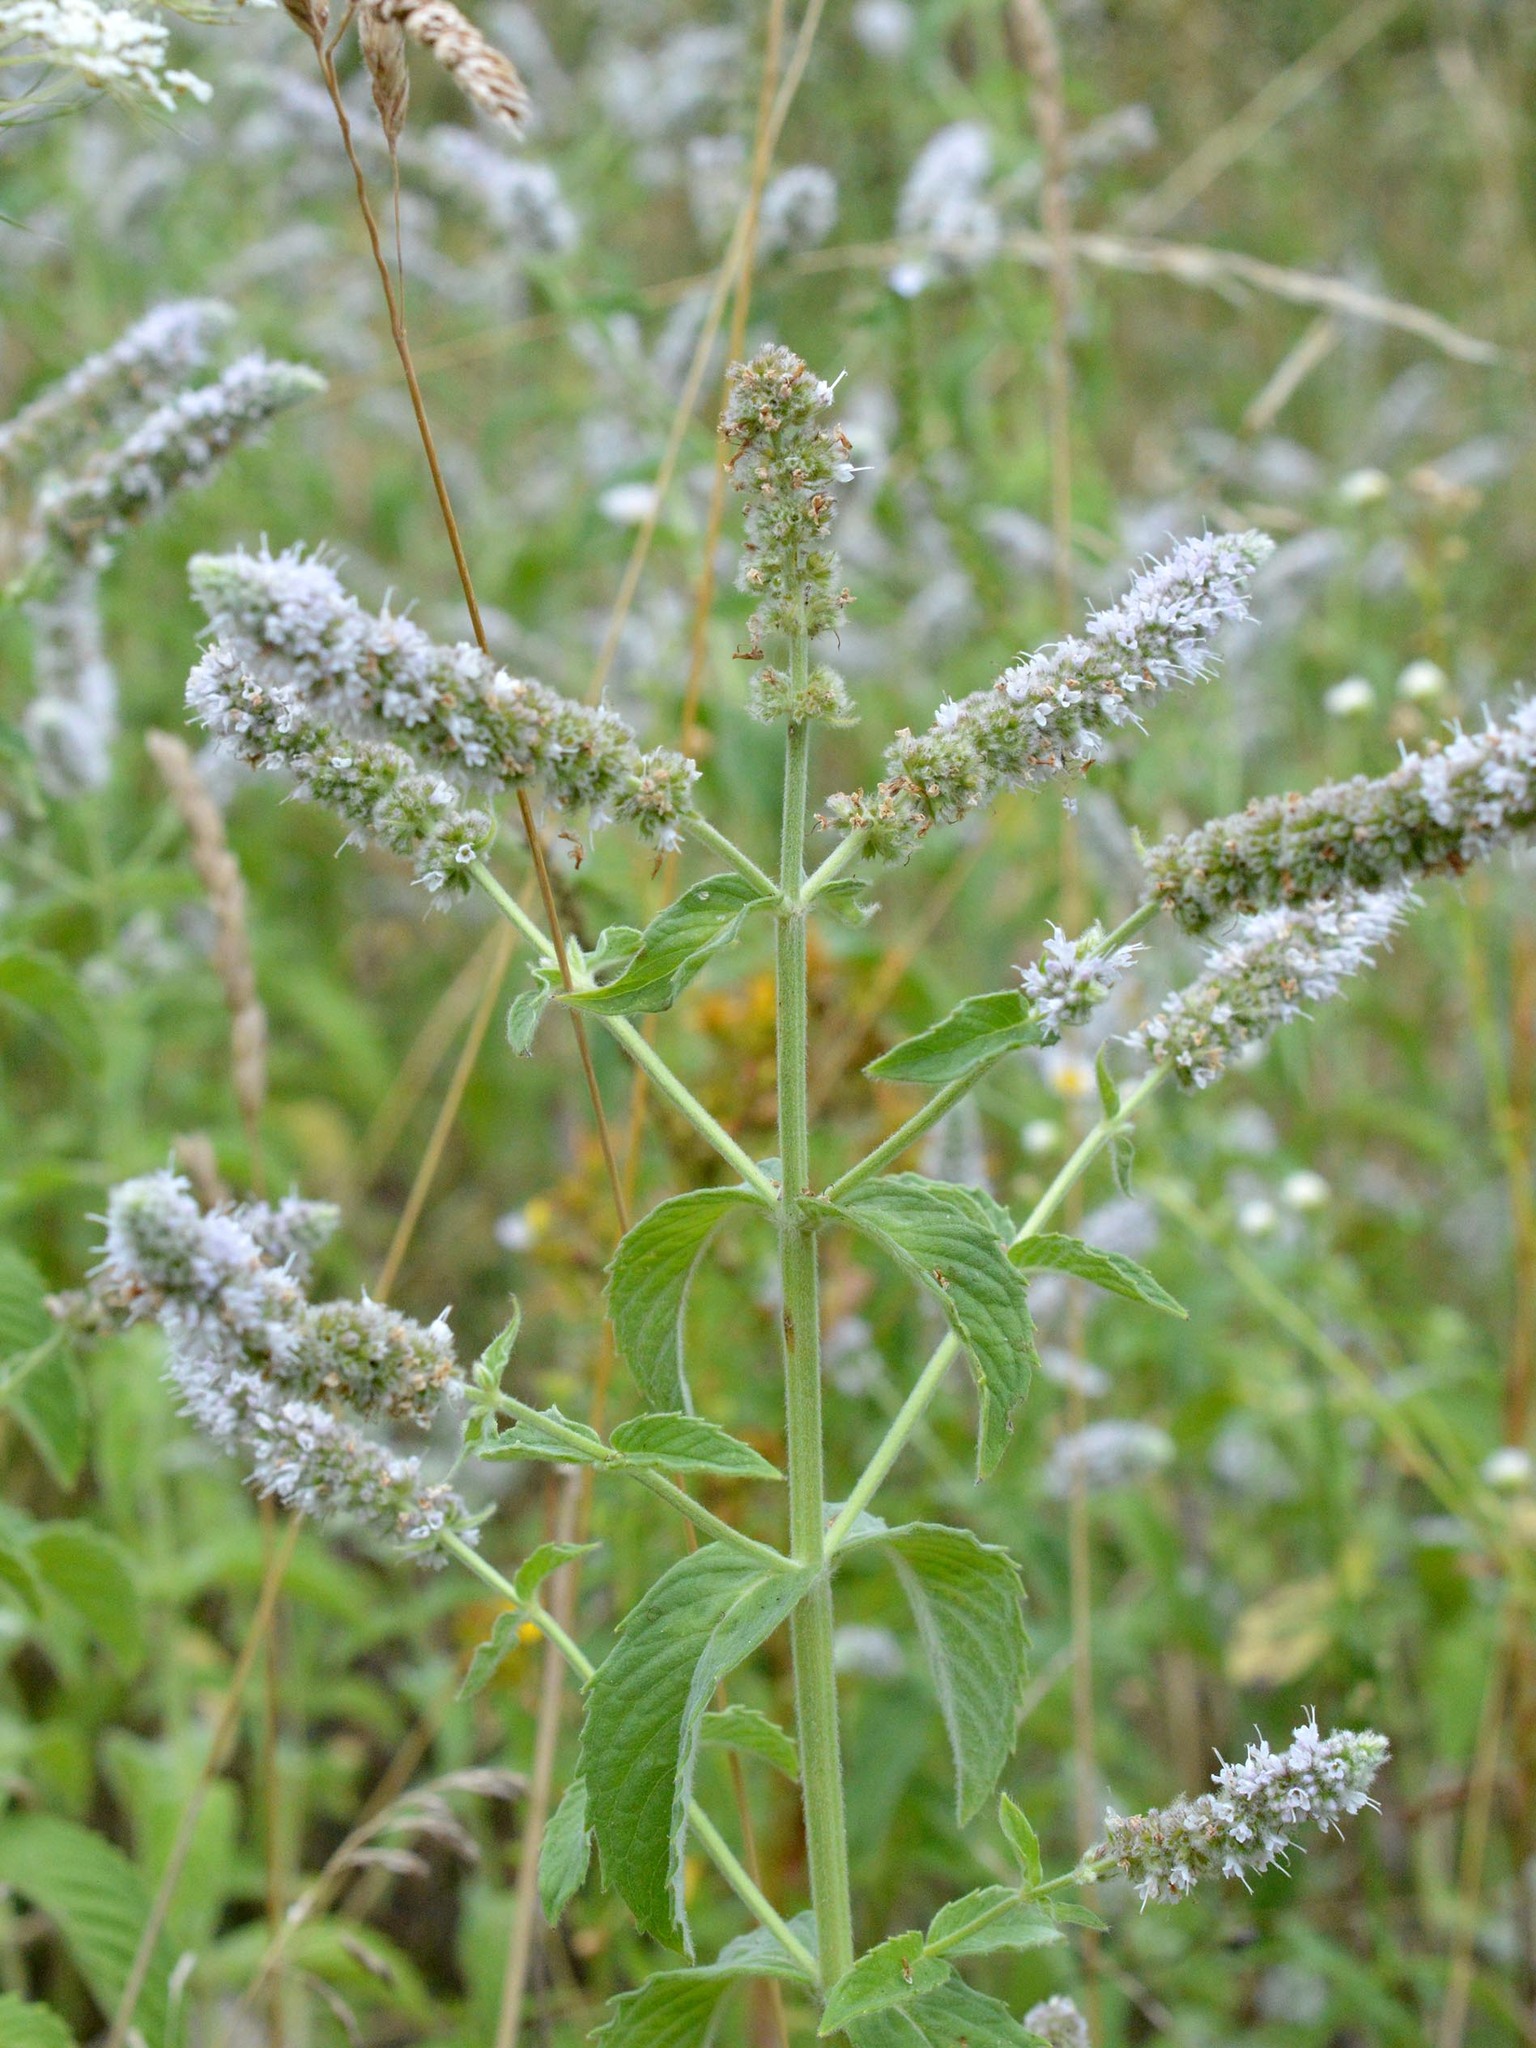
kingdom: Plantae
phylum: Tracheophyta
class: Magnoliopsida
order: Lamiales
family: Lamiaceae
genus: Mentha
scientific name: Mentha longifolia
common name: Horse mint
